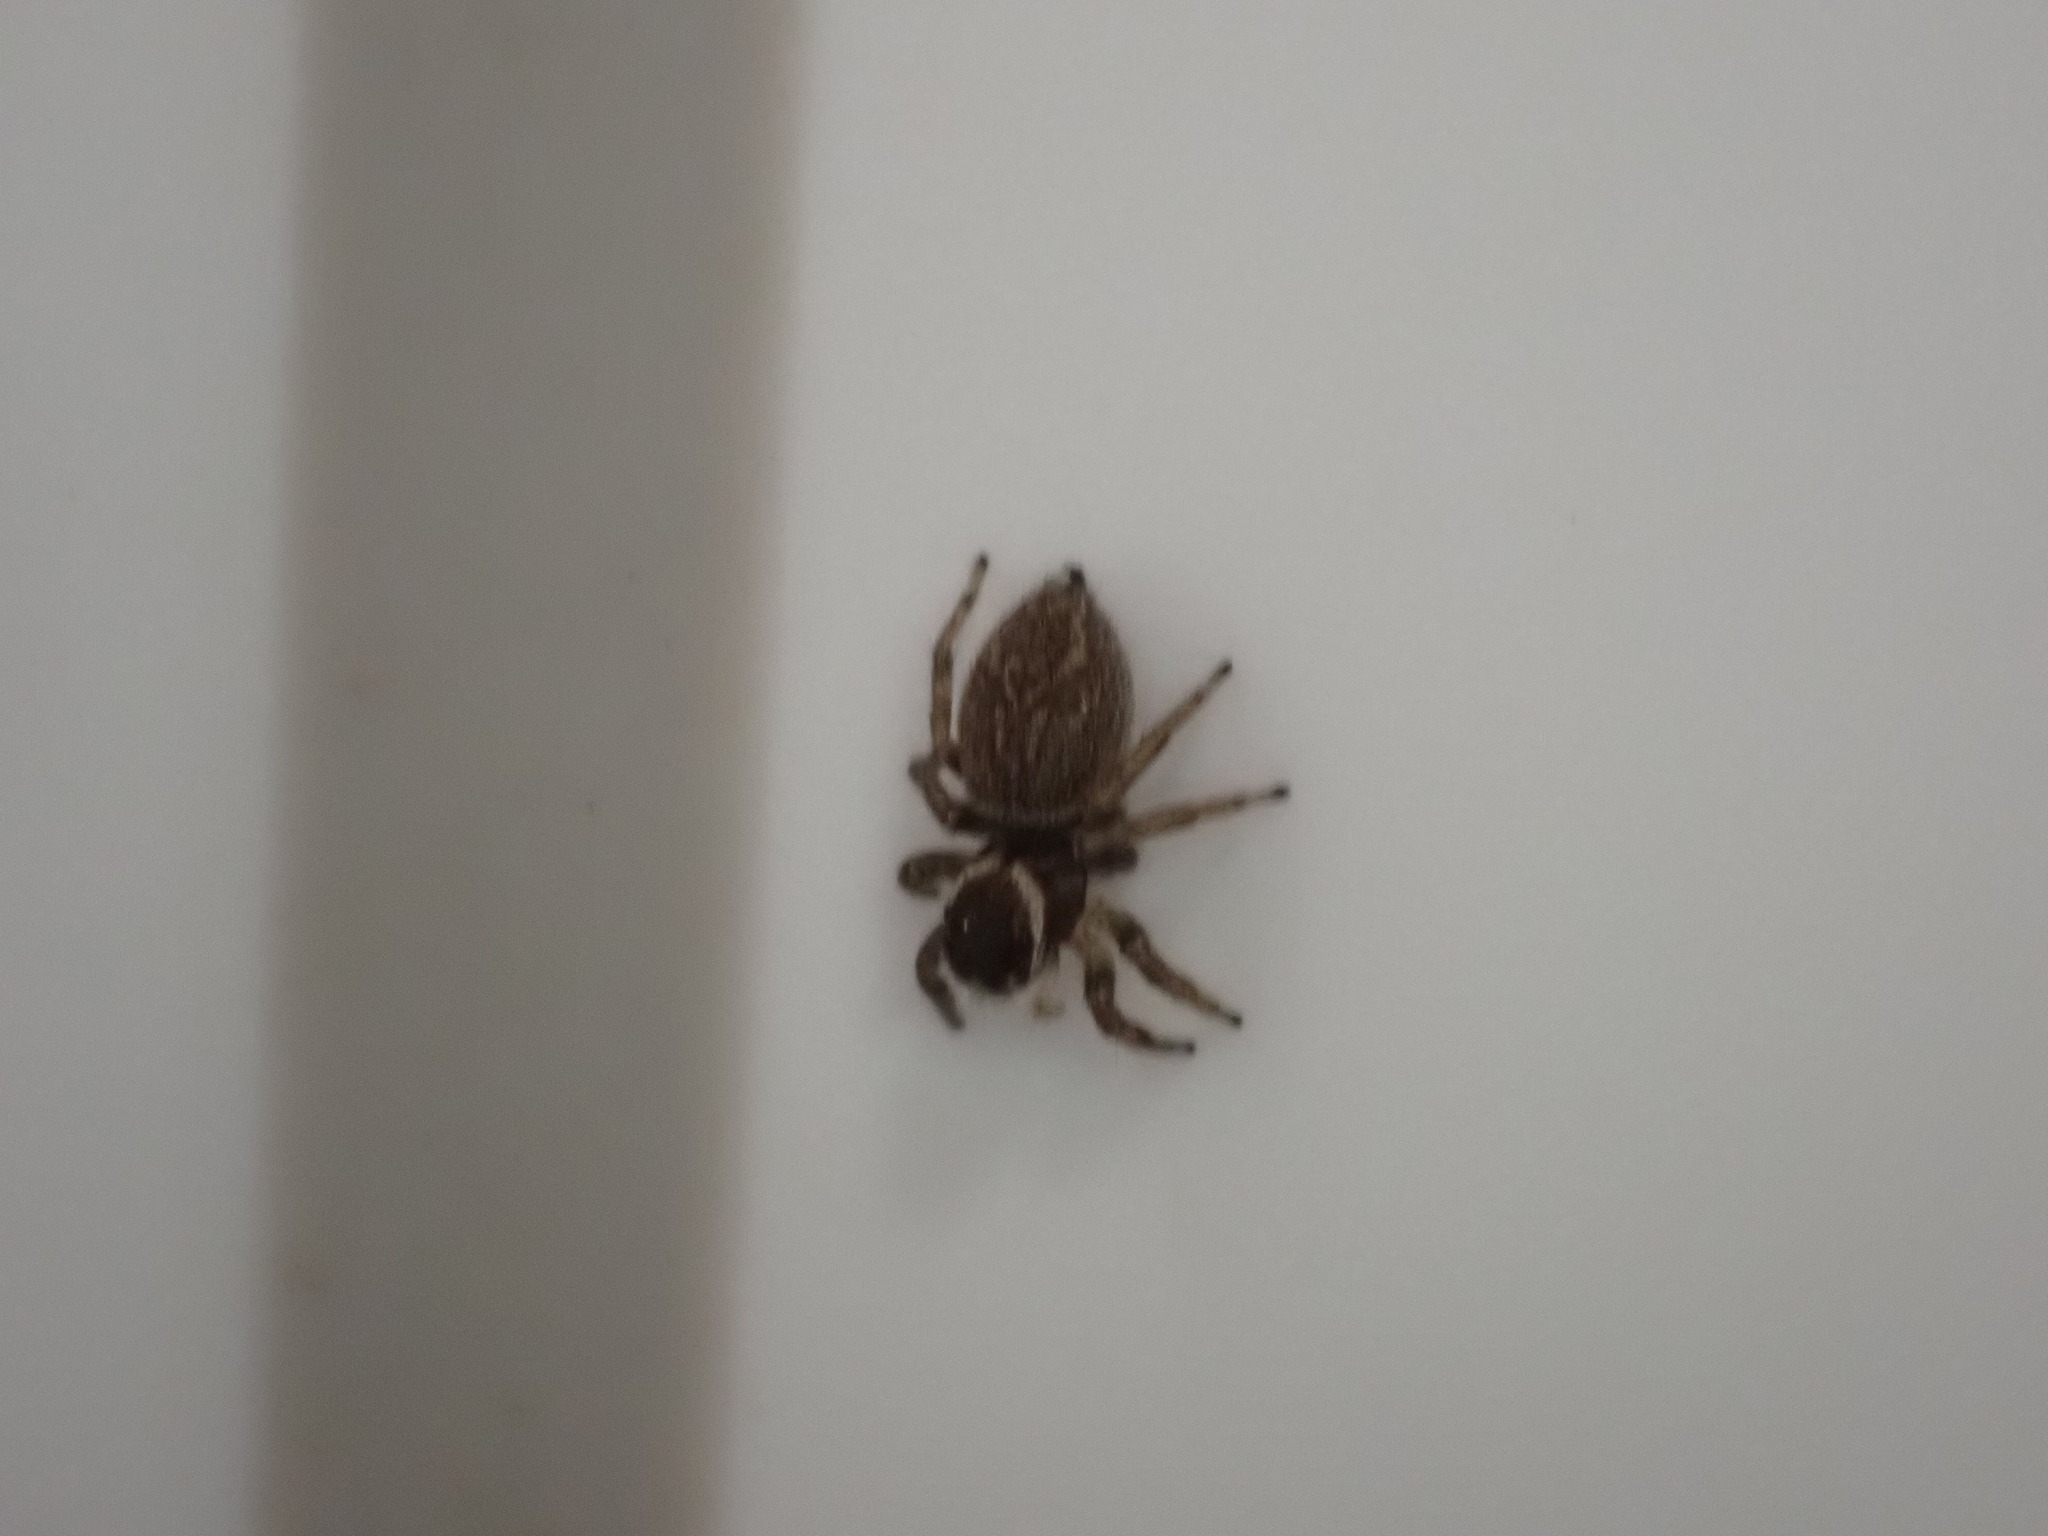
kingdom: Animalia
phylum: Arthropoda
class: Arachnida
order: Araneae
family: Salticidae
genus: Maratus
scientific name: Maratus griseus
